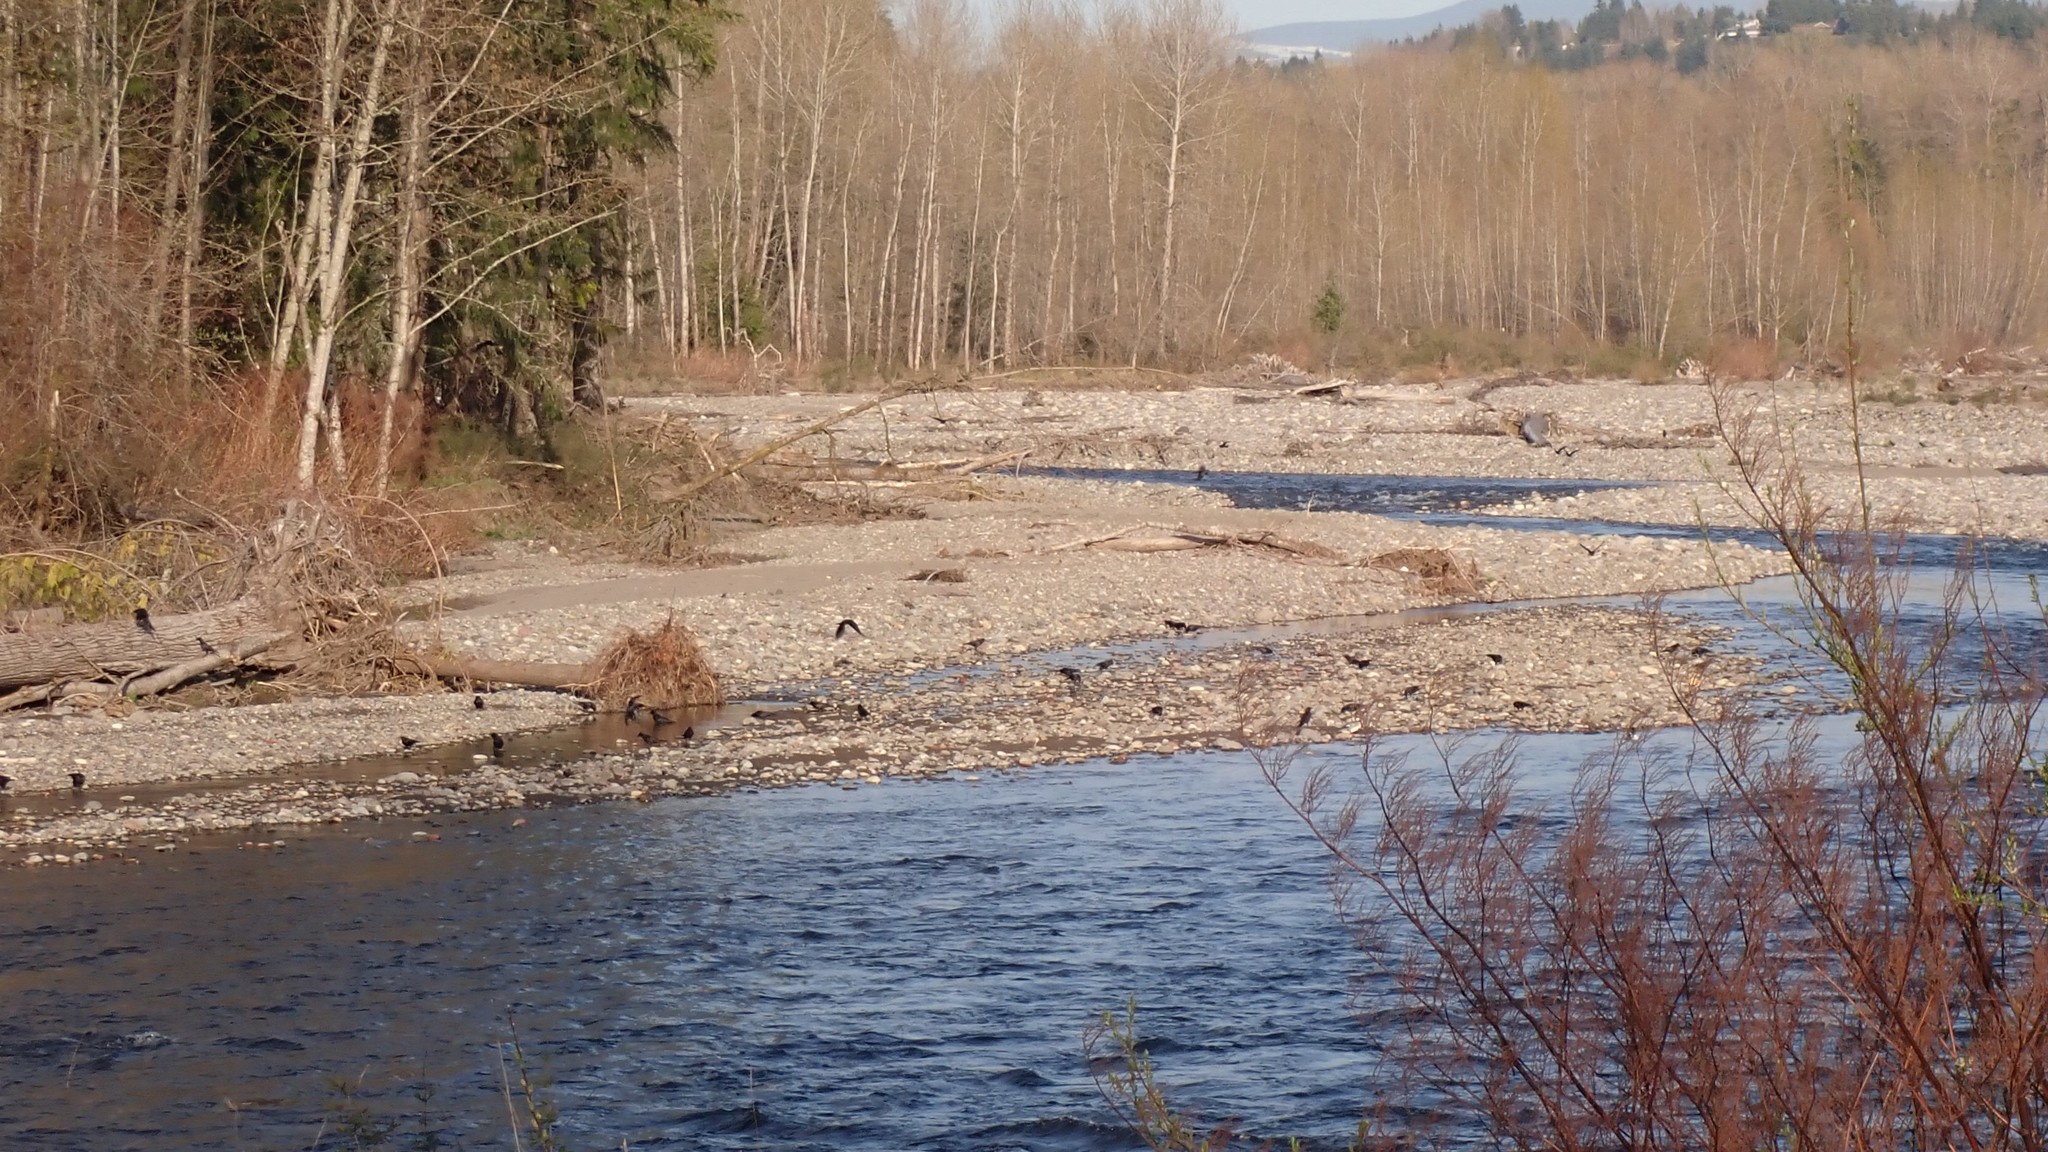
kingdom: Animalia
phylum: Chordata
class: Aves
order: Passeriformes
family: Corvidae
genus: Corvus
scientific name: Corvus brachyrhynchos
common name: American crow
